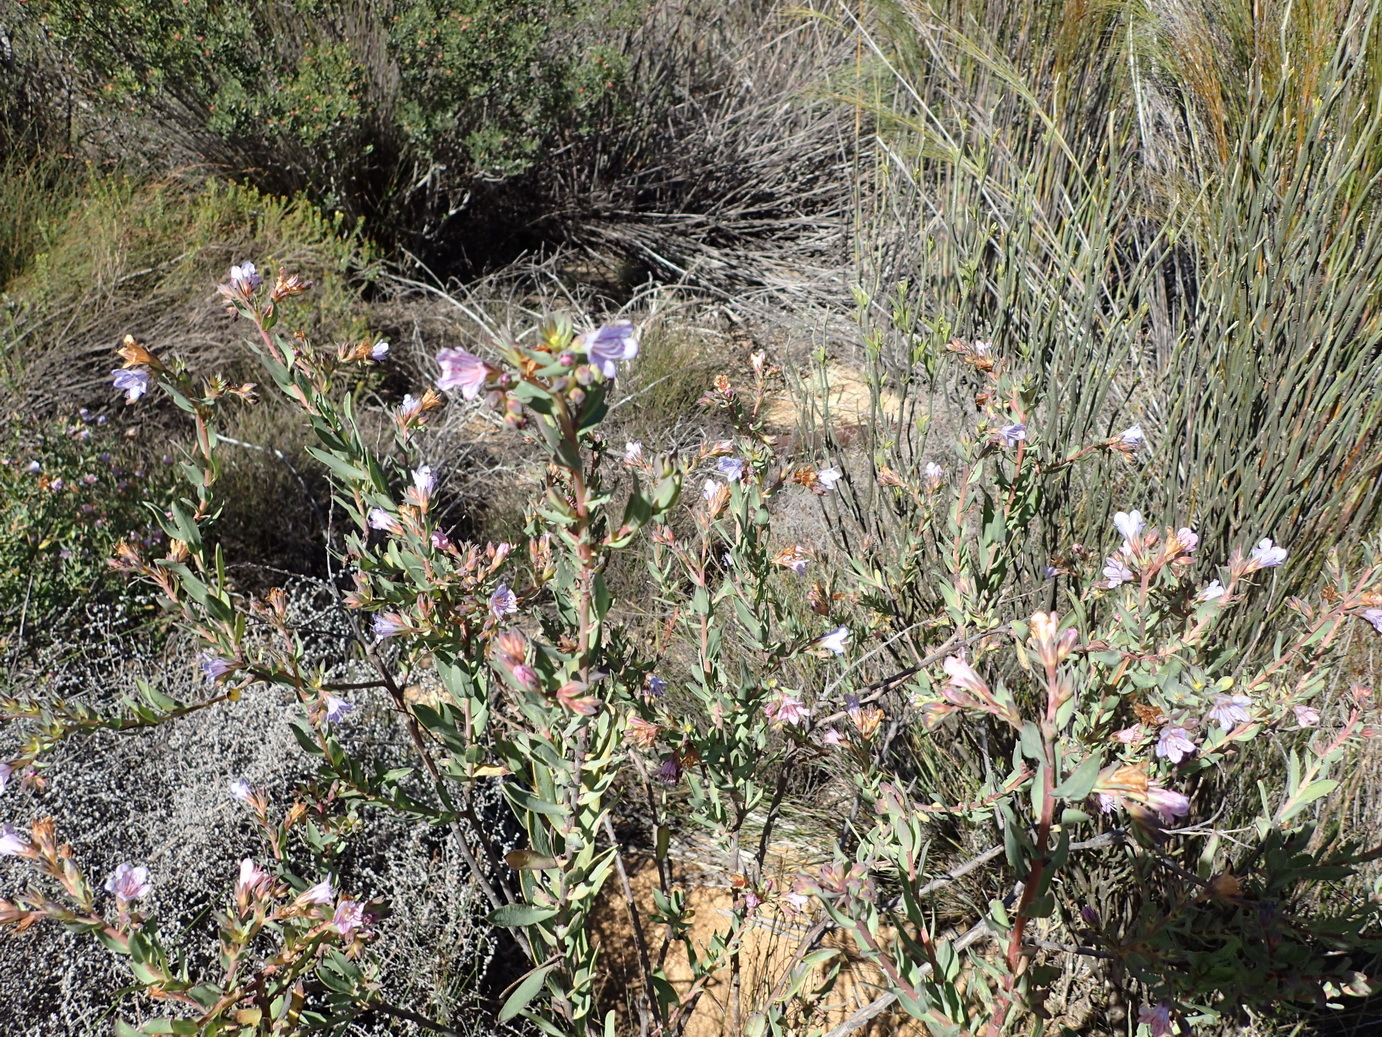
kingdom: Plantae
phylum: Tracheophyta
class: Magnoliopsida
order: Boraginales
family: Boraginaceae
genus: Lobostemon
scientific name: Lobostemon glaucophyllus
